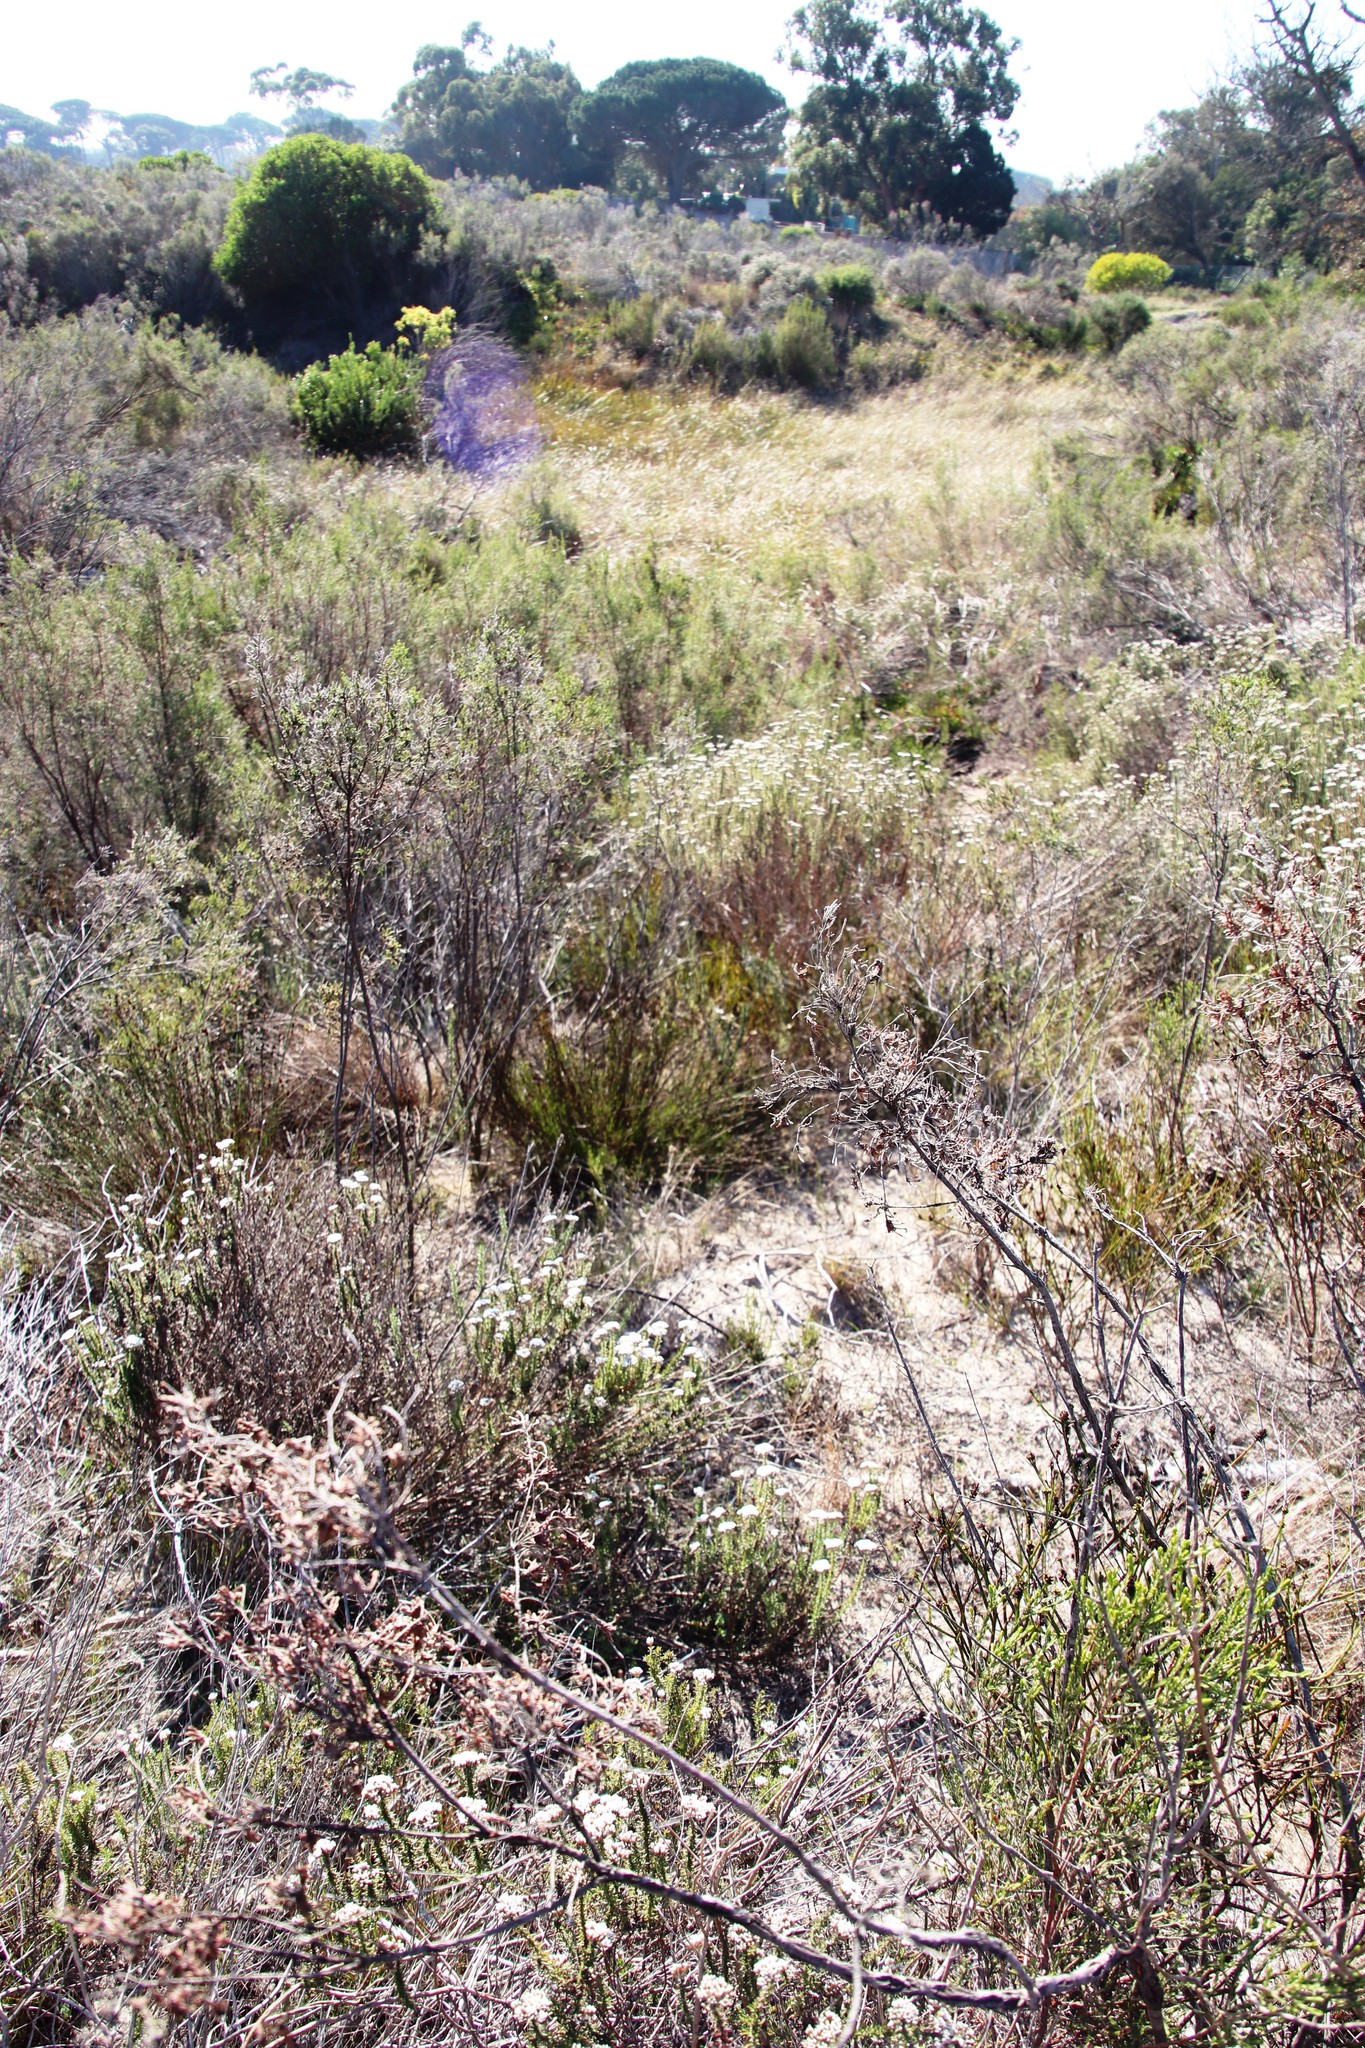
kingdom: Plantae
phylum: Tracheophyta
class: Liliopsida
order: Poales
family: Restionaceae
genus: Restio
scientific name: Restio capensis
